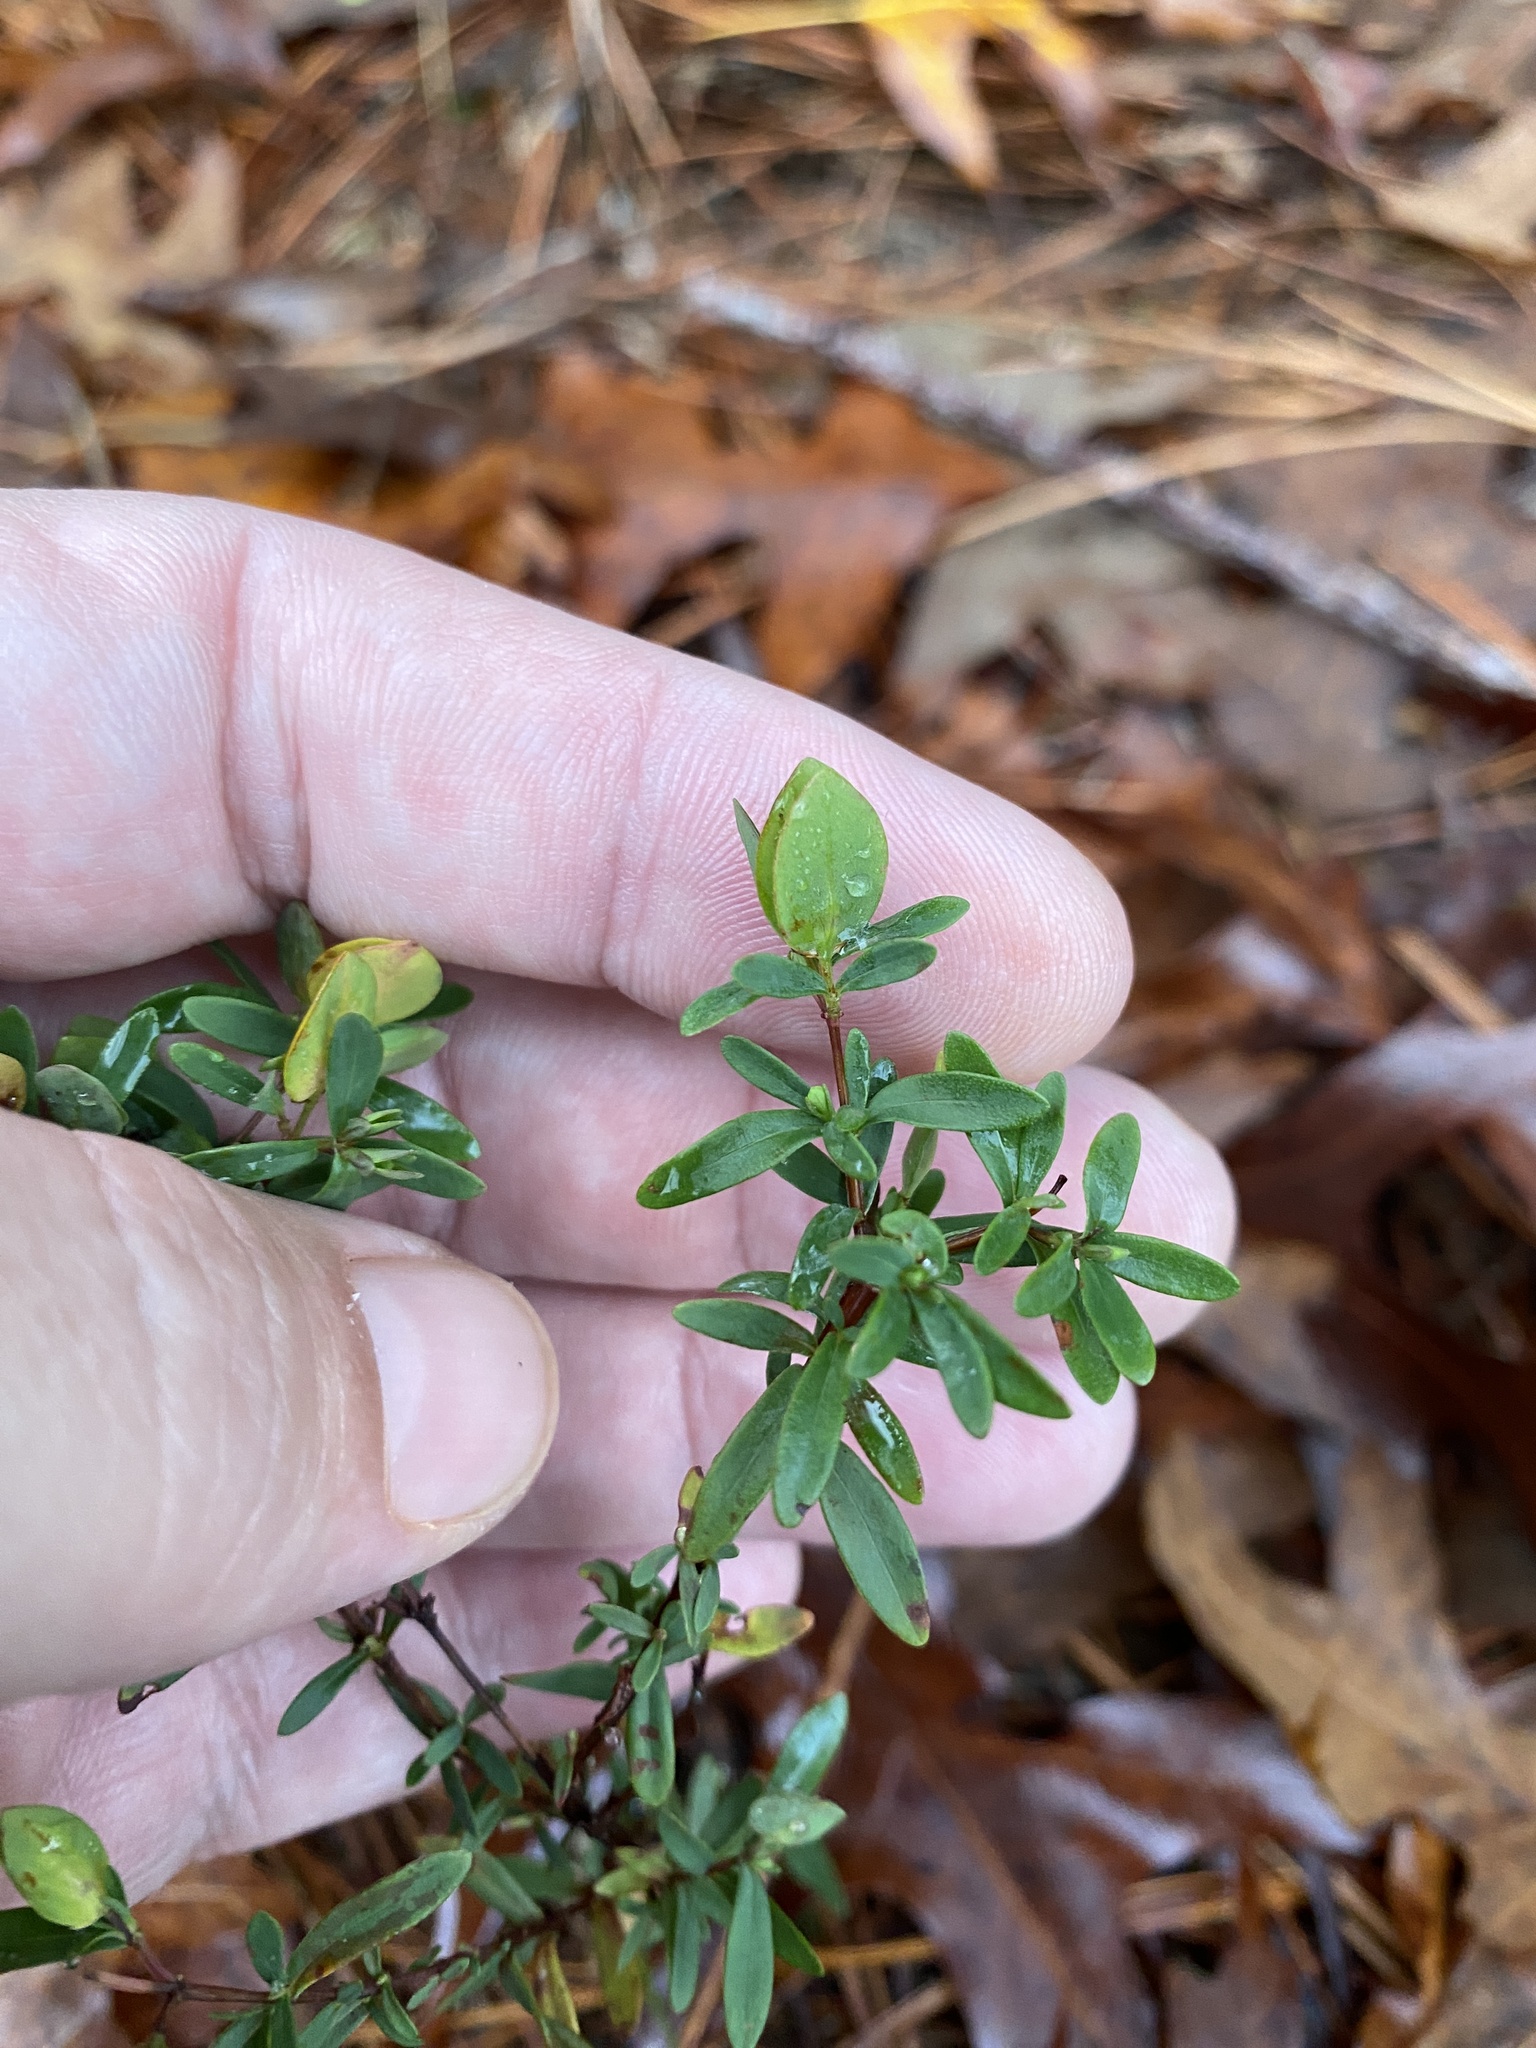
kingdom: Plantae
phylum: Tracheophyta
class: Magnoliopsida
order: Malpighiales
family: Hypericaceae
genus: Hypericum
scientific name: Hypericum hypericoides
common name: St. andrew's cross
